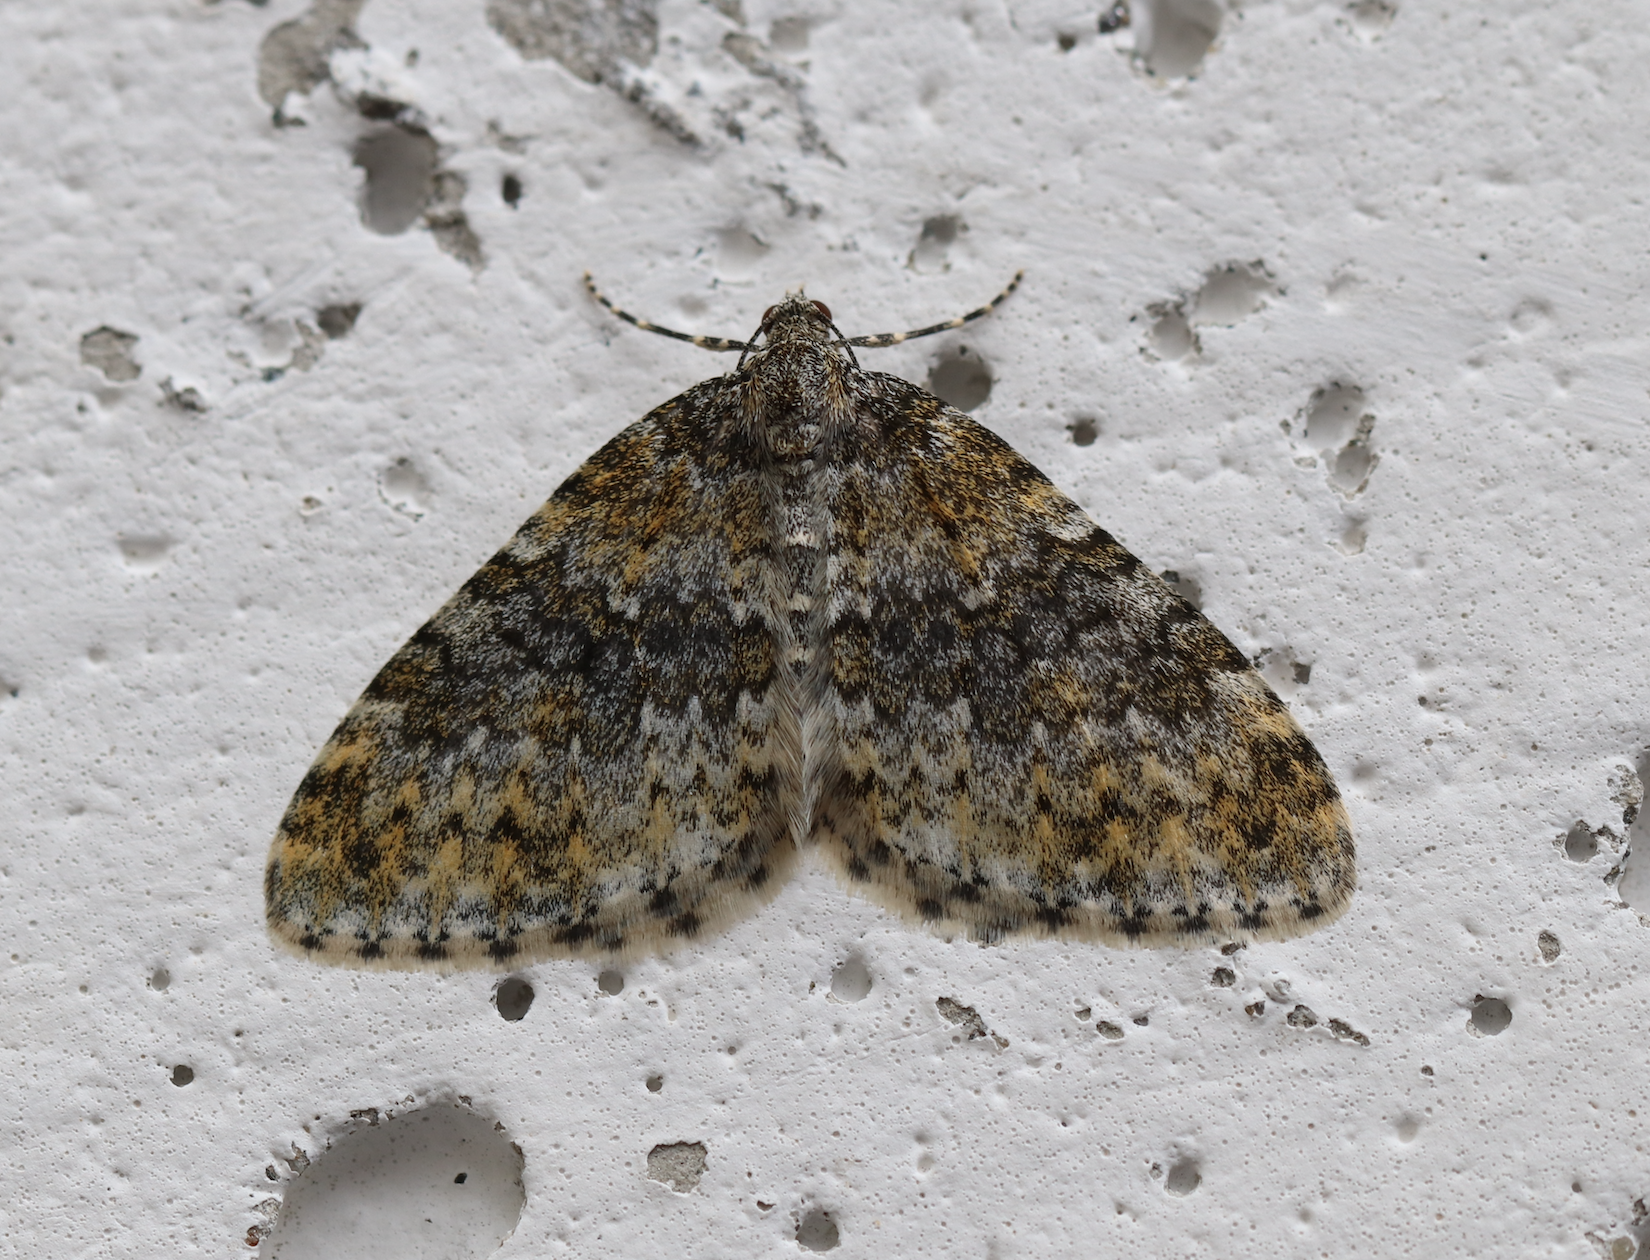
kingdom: Animalia
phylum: Arthropoda
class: Insecta
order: Lepidoptera
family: Geometridae
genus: Entephria
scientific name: Entephria flavicinctata
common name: Yellow-ringed carpet
